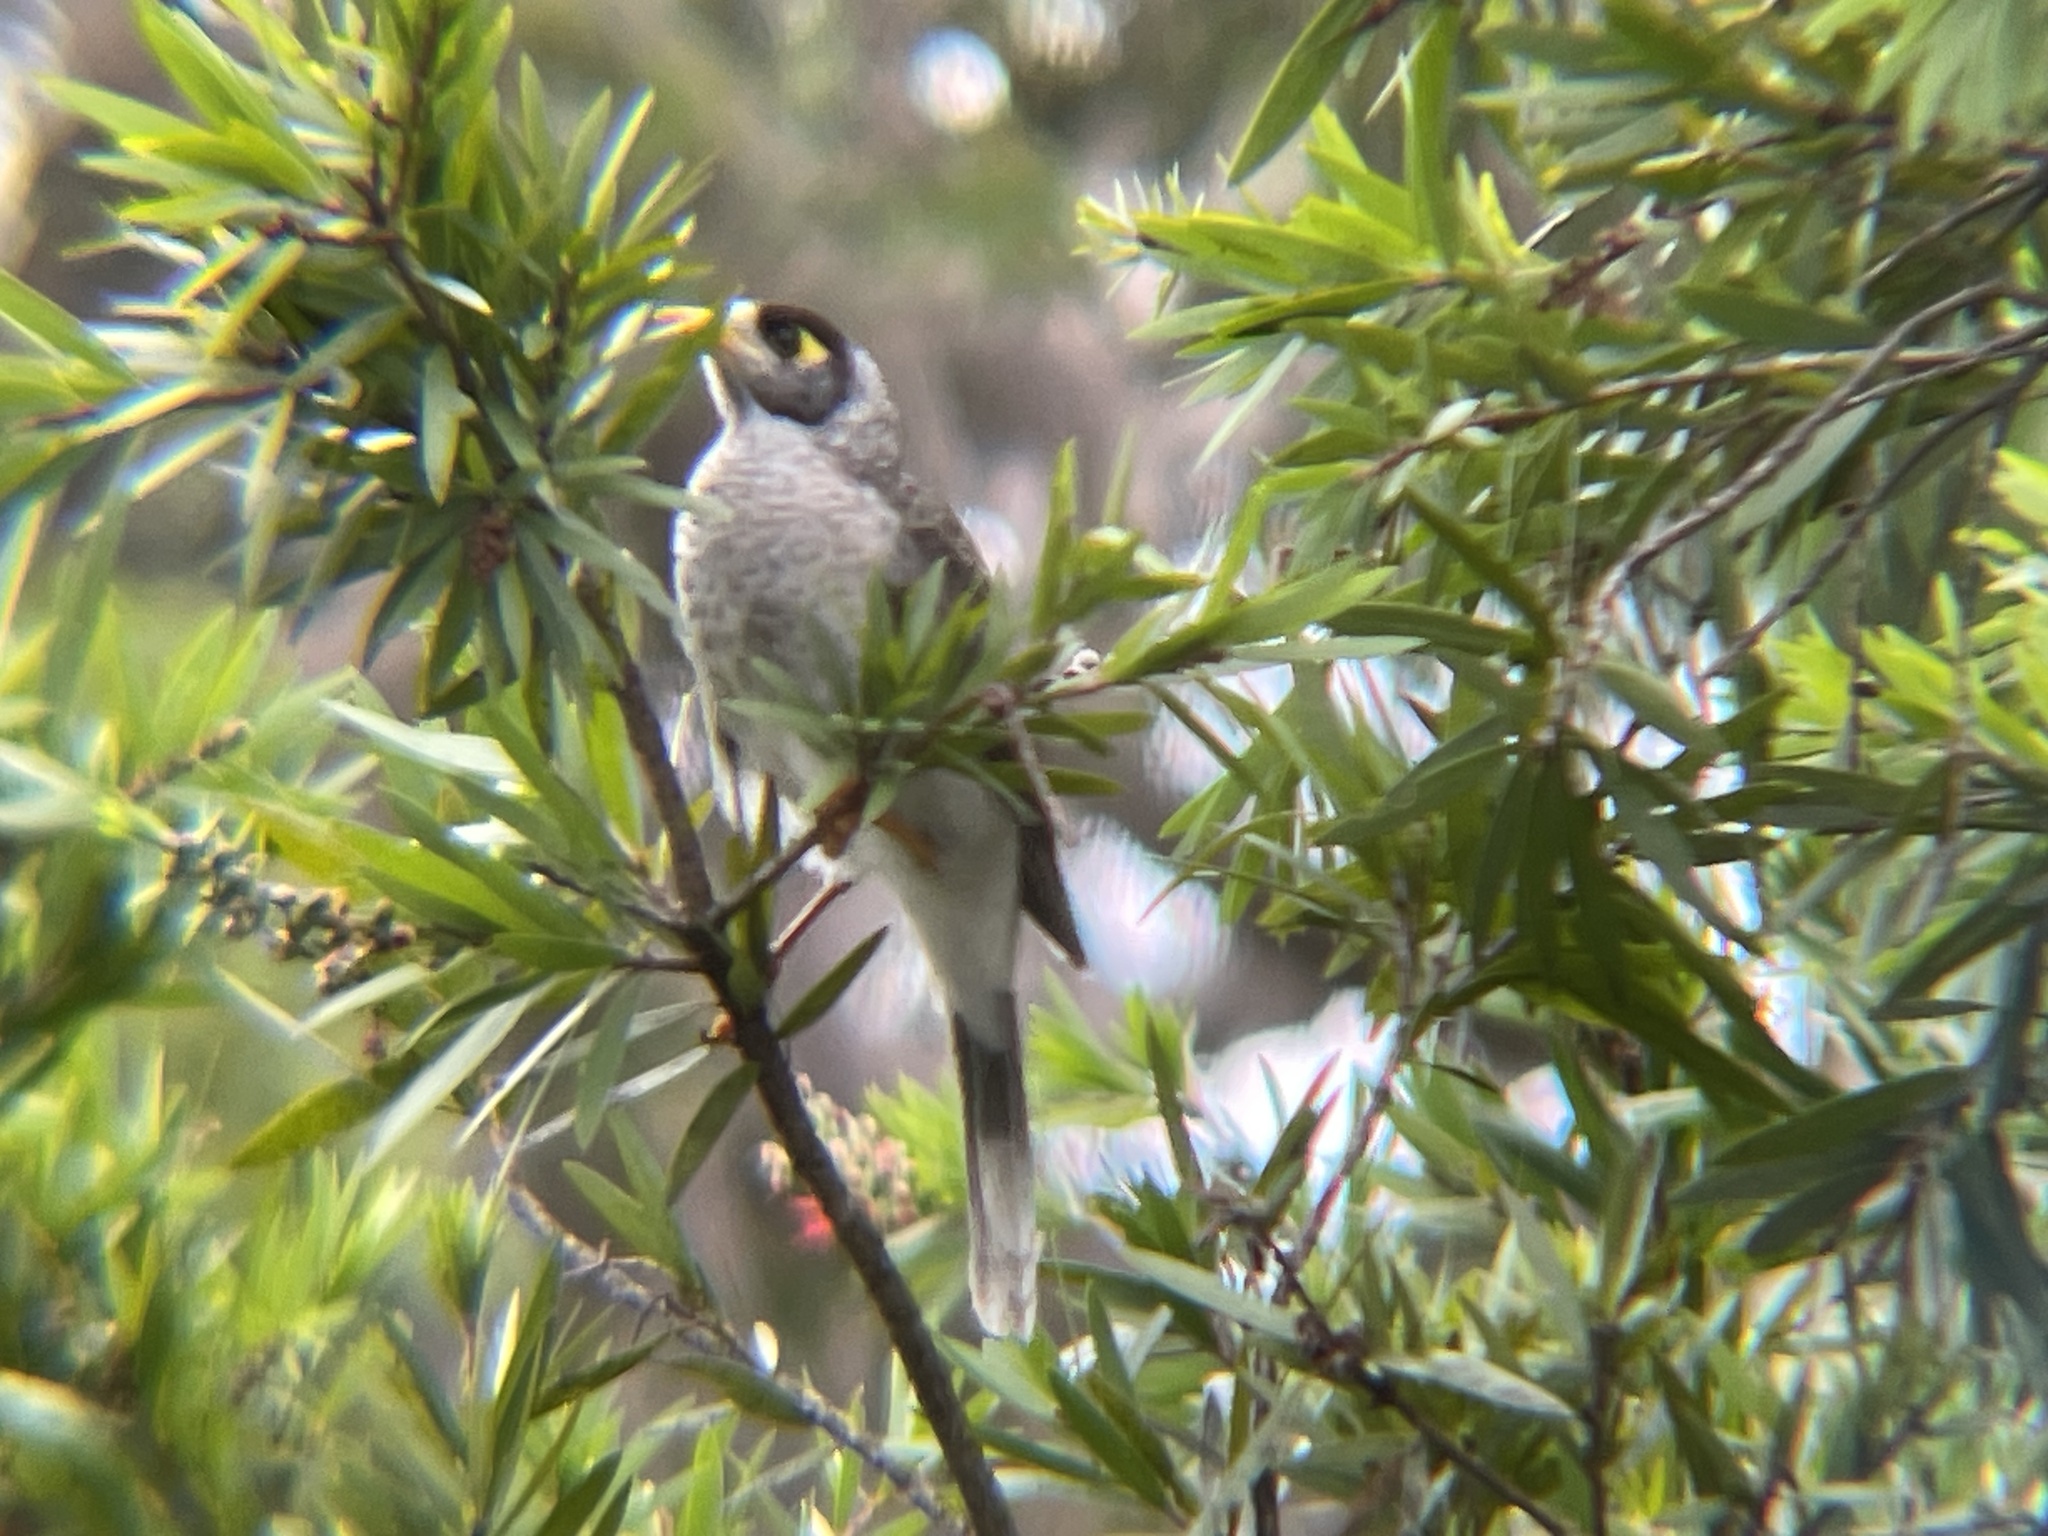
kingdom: Animalia
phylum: Chordata
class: Aves
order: Passeriformes
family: Meliphagidae
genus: Manorina
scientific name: Manorina melanocephala
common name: Noisy miner
